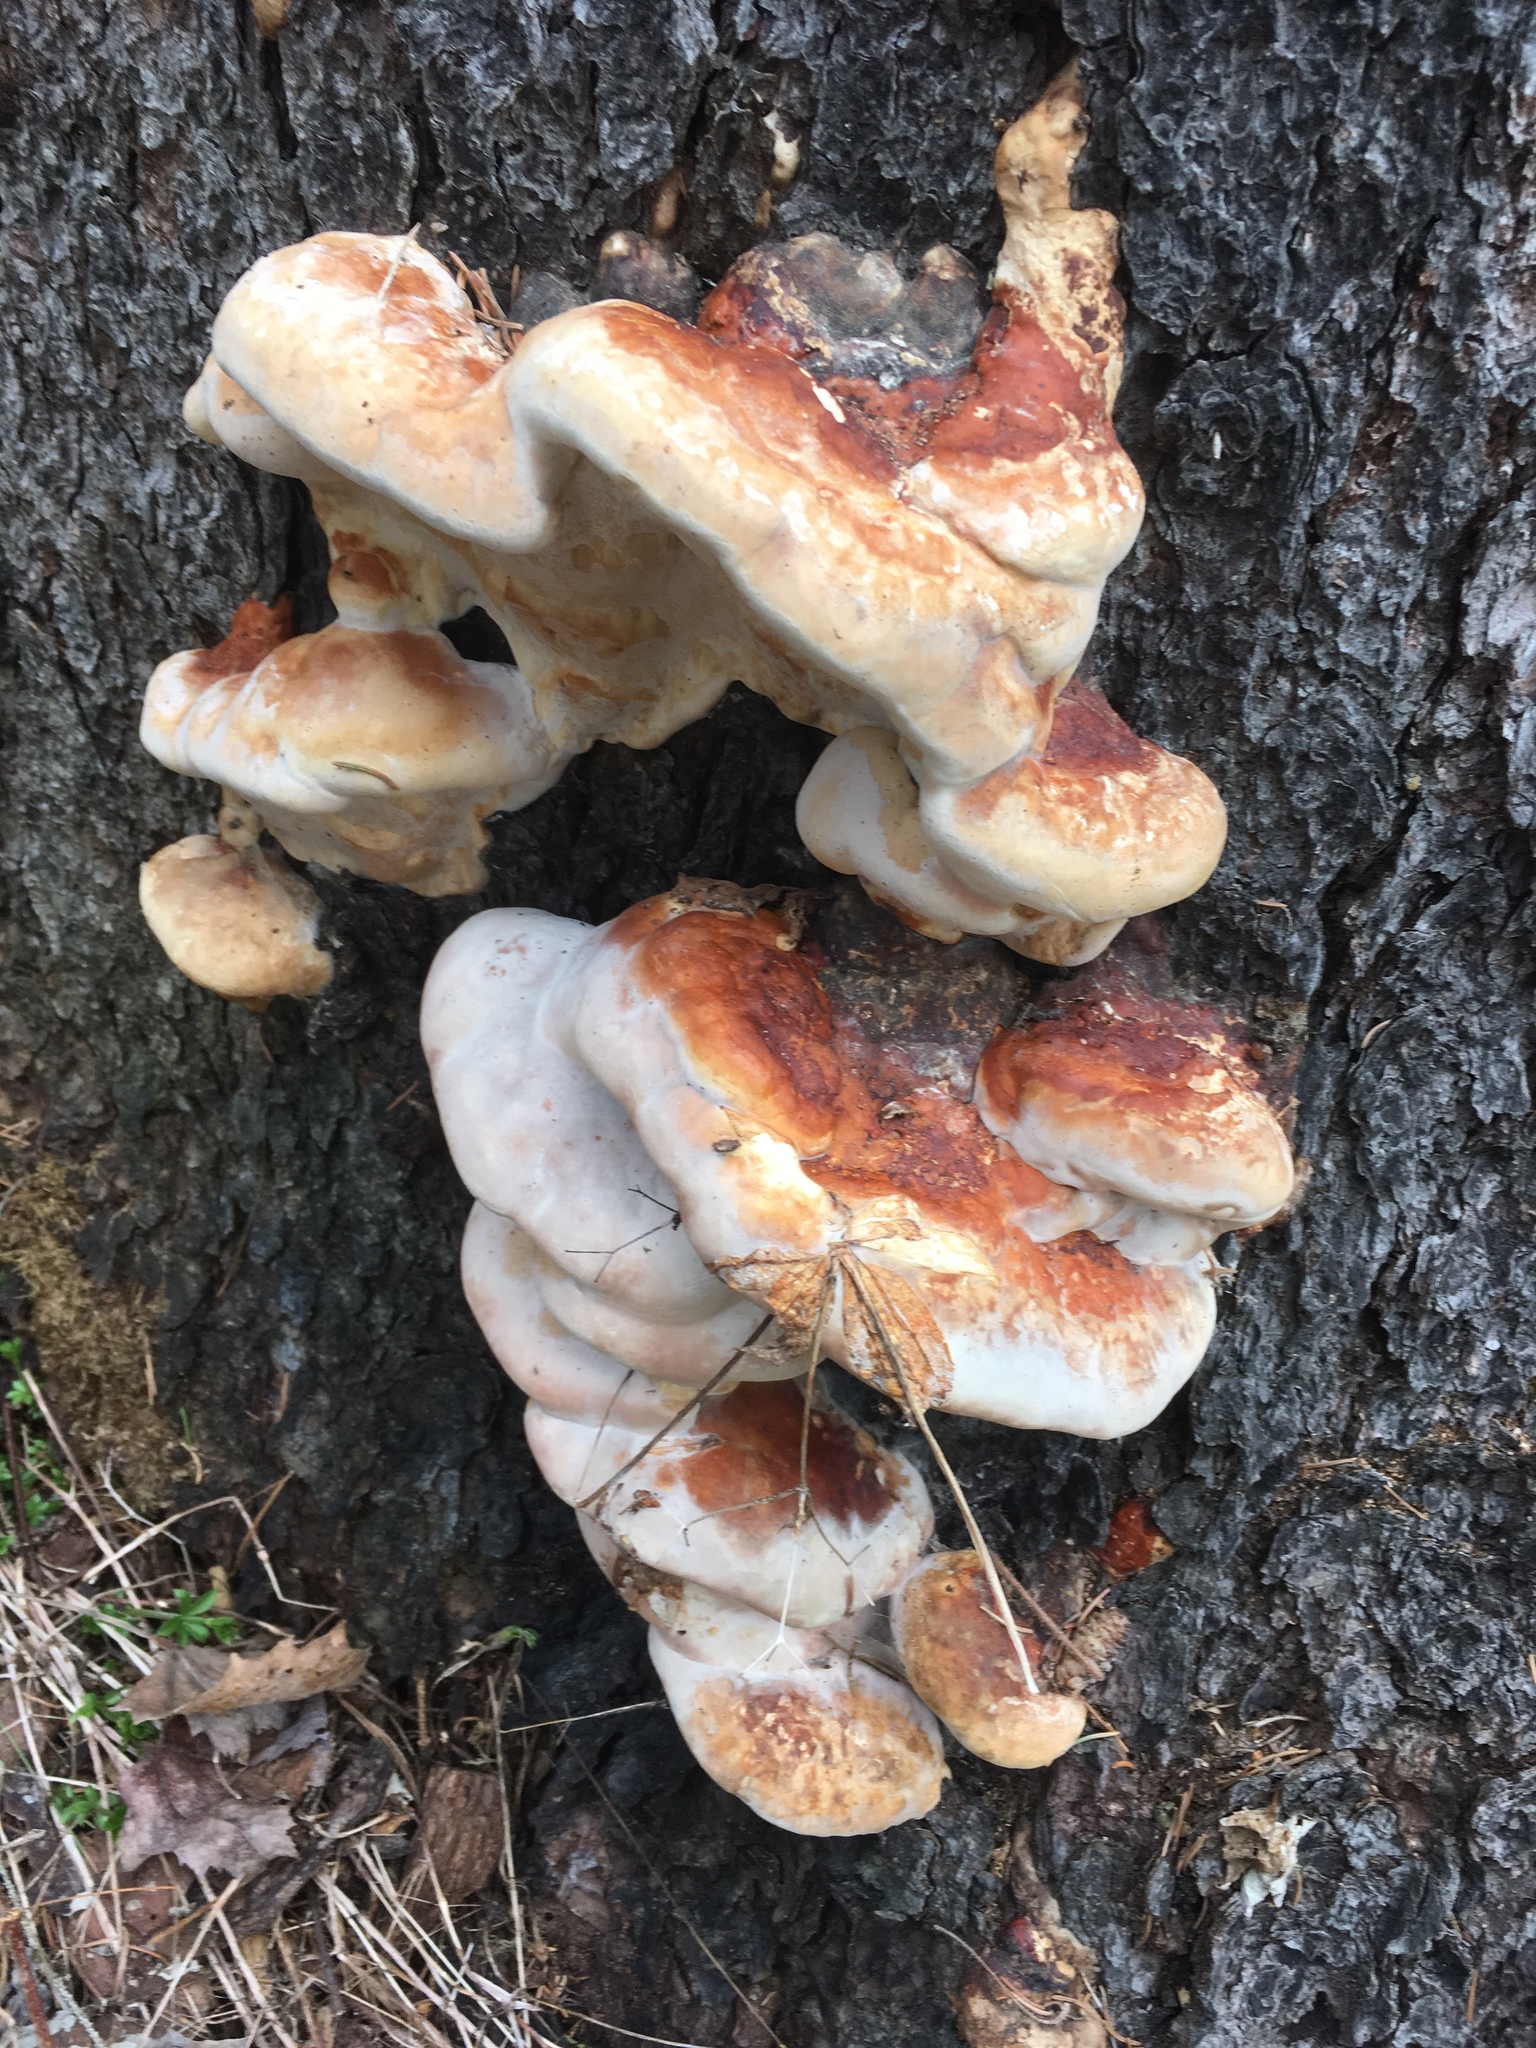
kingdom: Fungi
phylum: Basidiomycota
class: Agaricomycetes
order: Polyporales
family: Fomitopsidaceae
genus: Fomitopsis
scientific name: Fomitopsis mounceae
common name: Northern red belt
